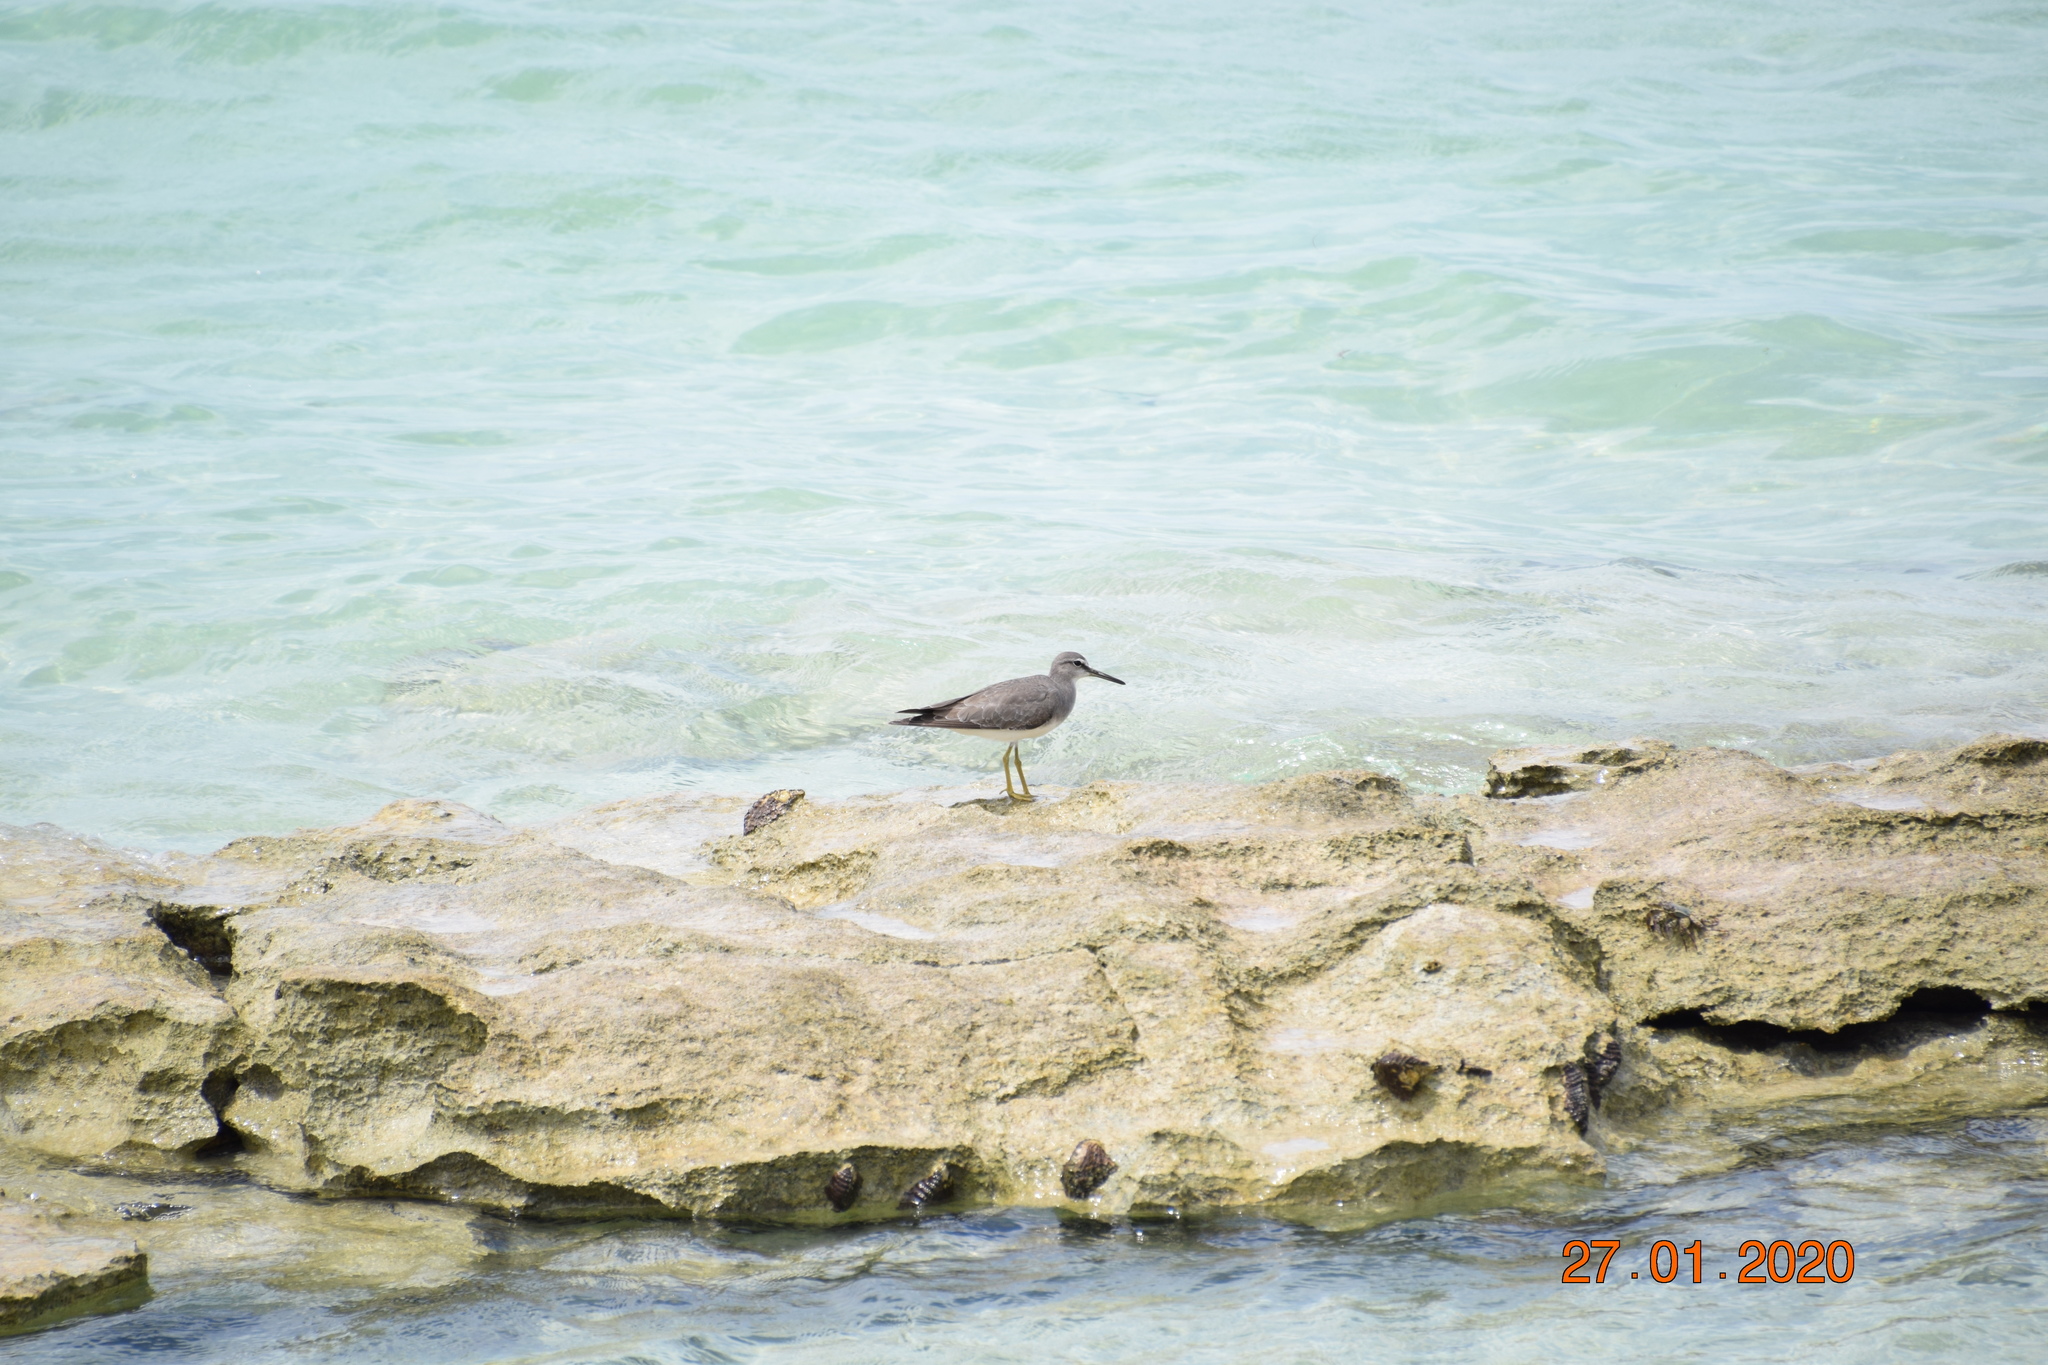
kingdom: Animalia
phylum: Chordata
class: Aves
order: Charadriiformes
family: Scolopacidae
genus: Tringa
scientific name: Tringa brevipes
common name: Grey-tailed tattler
